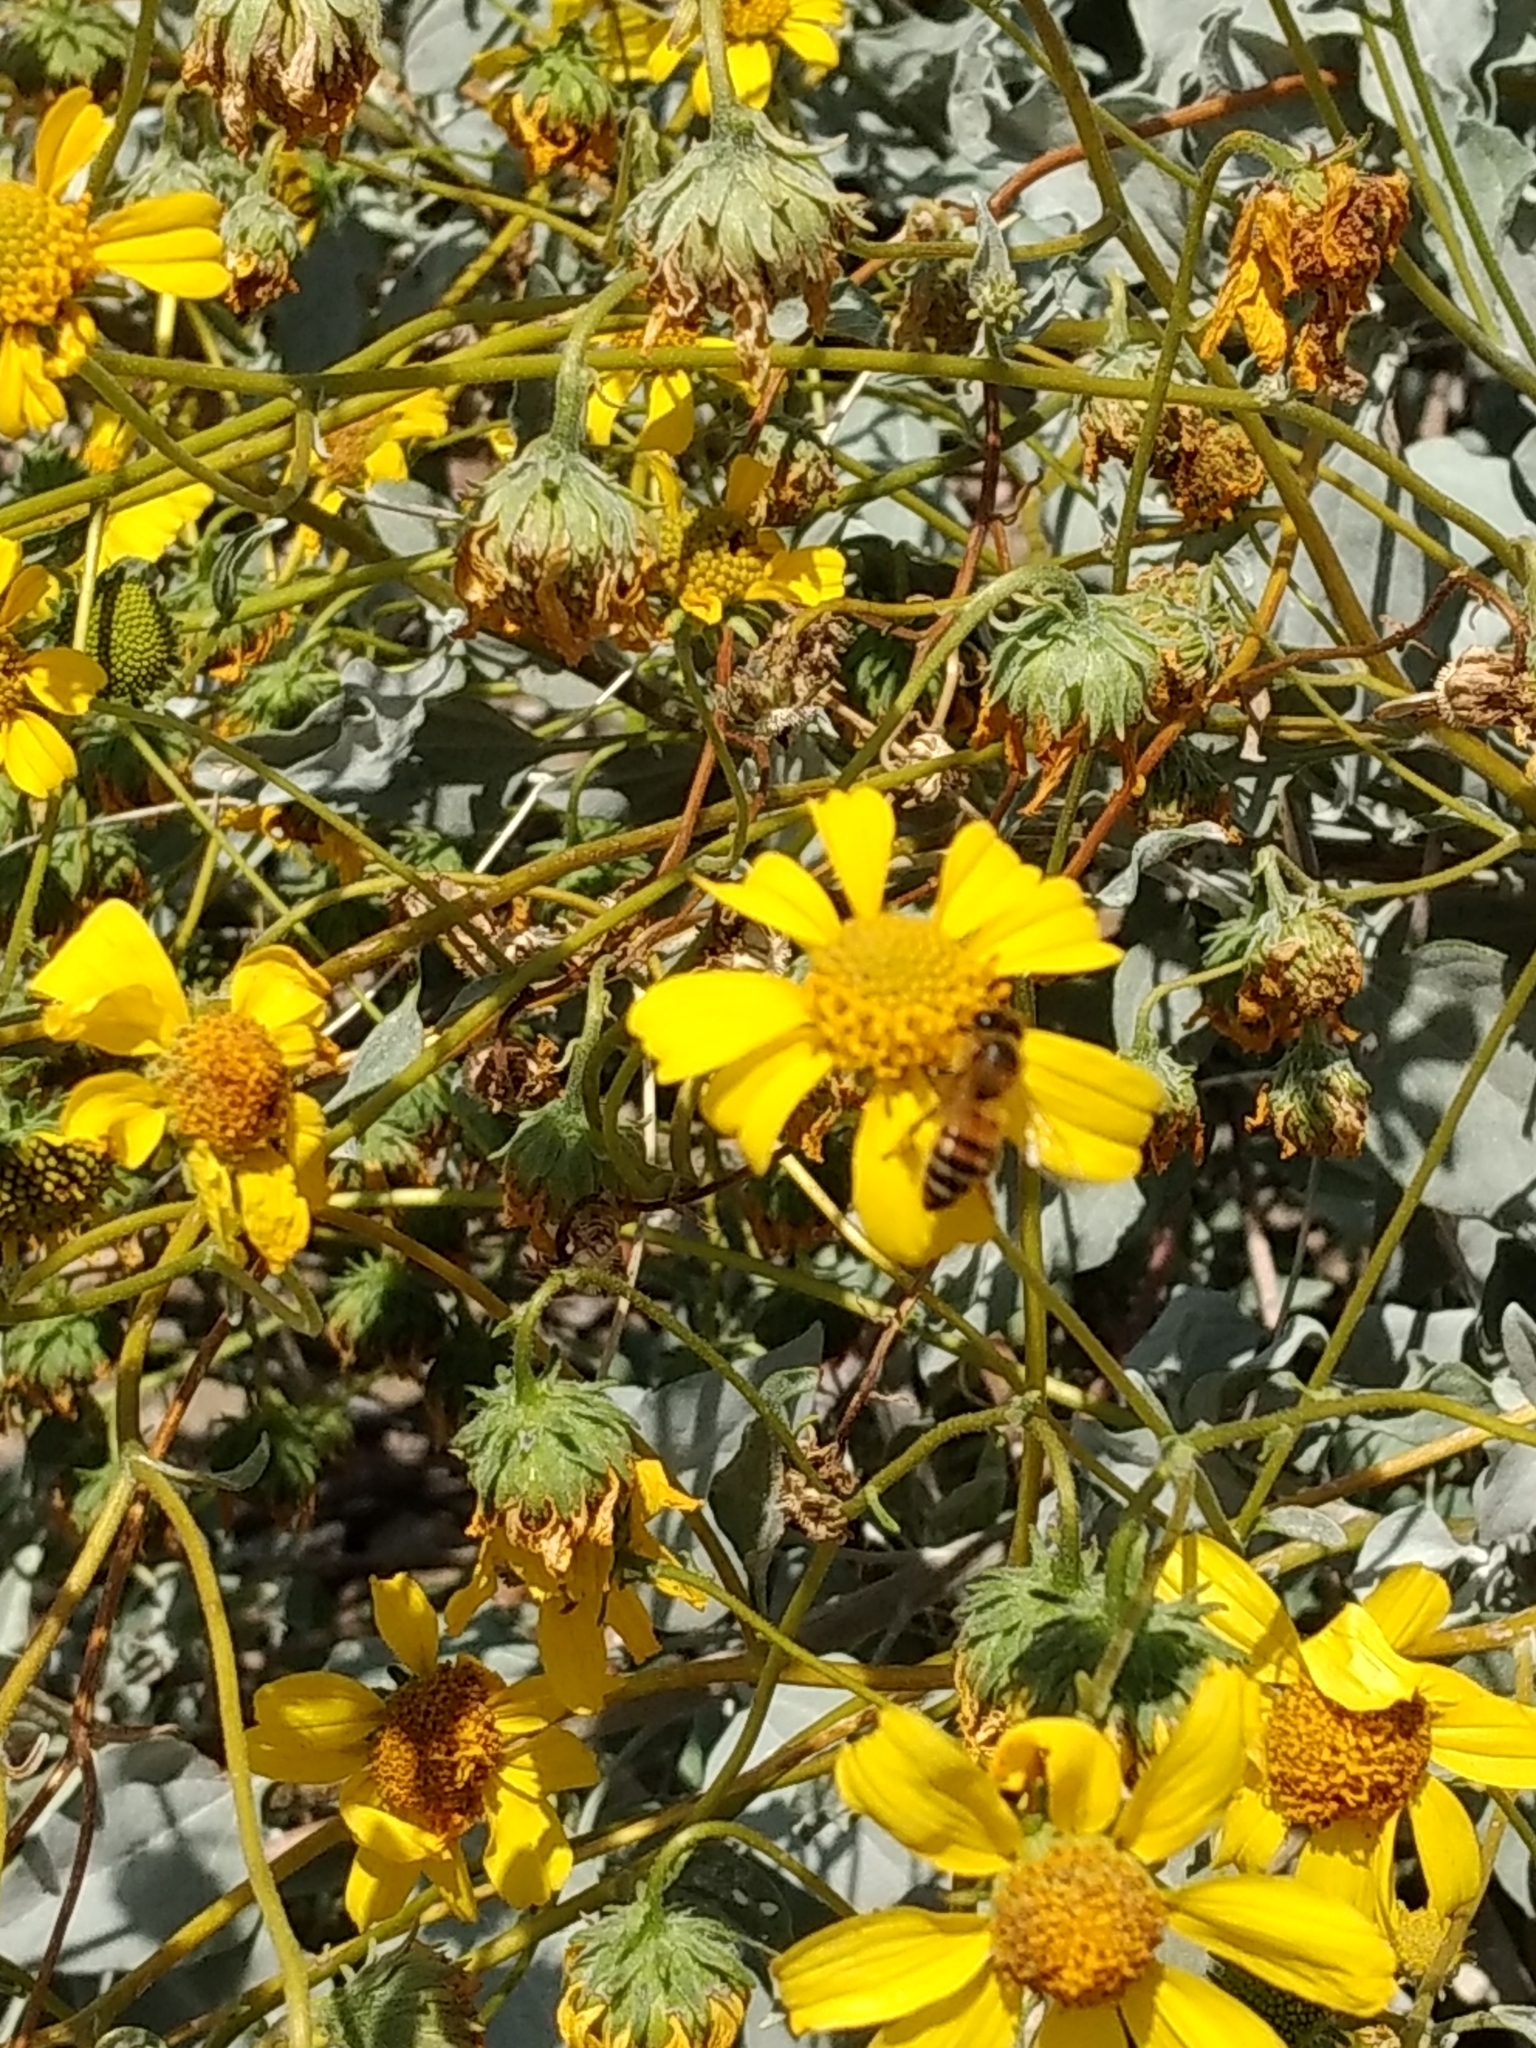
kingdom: Animalia
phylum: Arthropoda
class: Insecta
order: Hymenoptera
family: Apidae
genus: Apis
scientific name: Apis mellifera
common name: Honey bee
